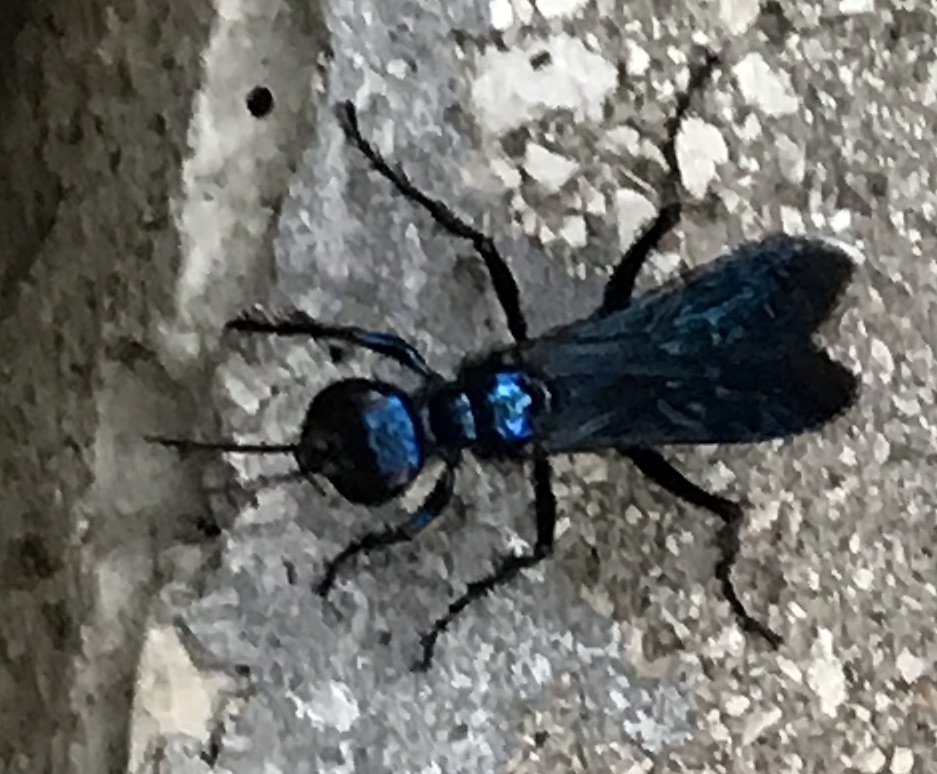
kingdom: Animalia
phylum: Arthropoda
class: Insecta
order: Hymenoptera
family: Sphecidae
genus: Chlorion
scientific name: Chlorion aerarium
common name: Steel-blue cricket hunter
